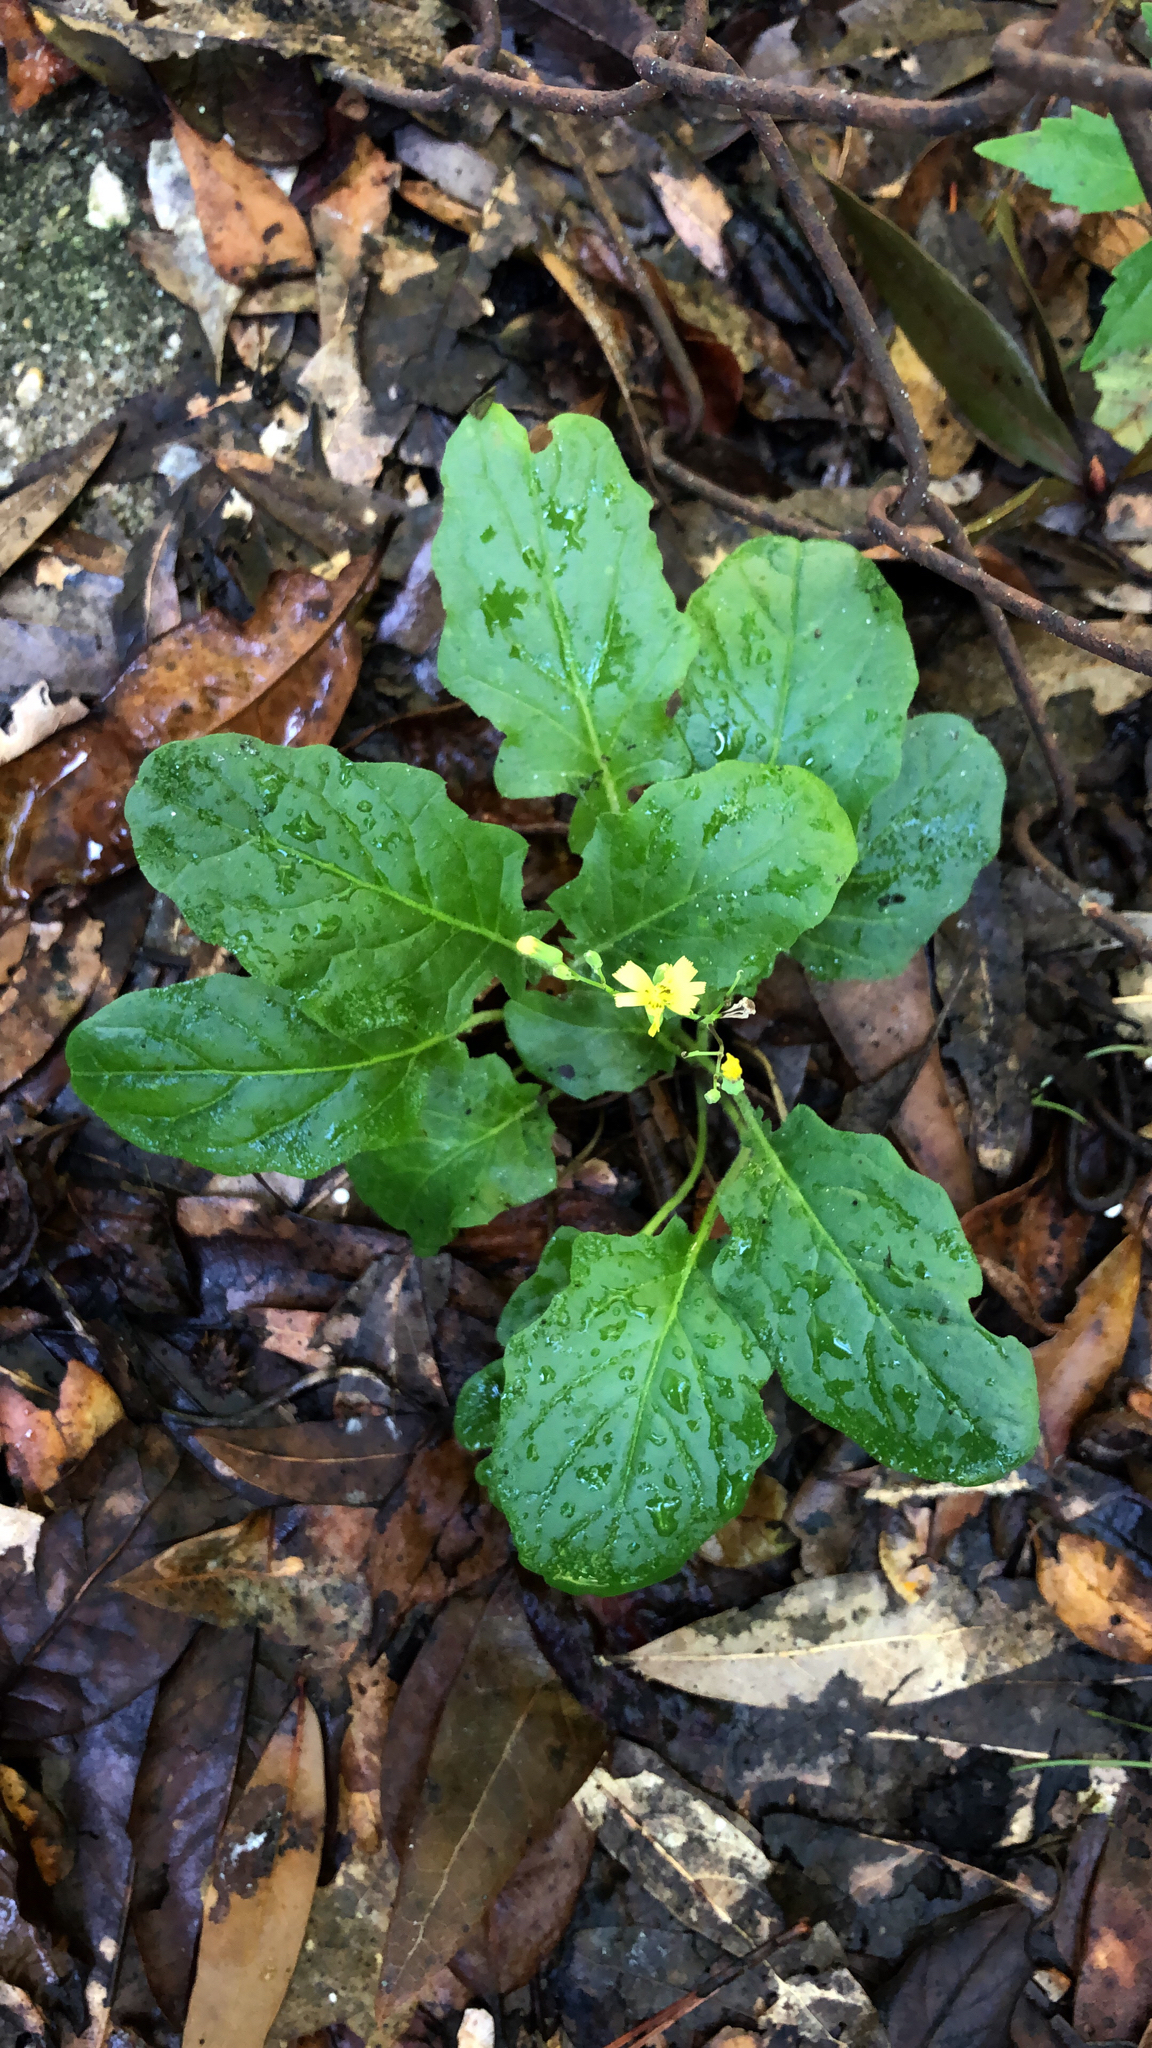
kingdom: Plantae
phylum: Tracheophyta
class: Magnoliopsida
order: Asterales
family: Asteraceae
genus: Youngia
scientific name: Youngia japonica
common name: Oriental false hawksbeard
